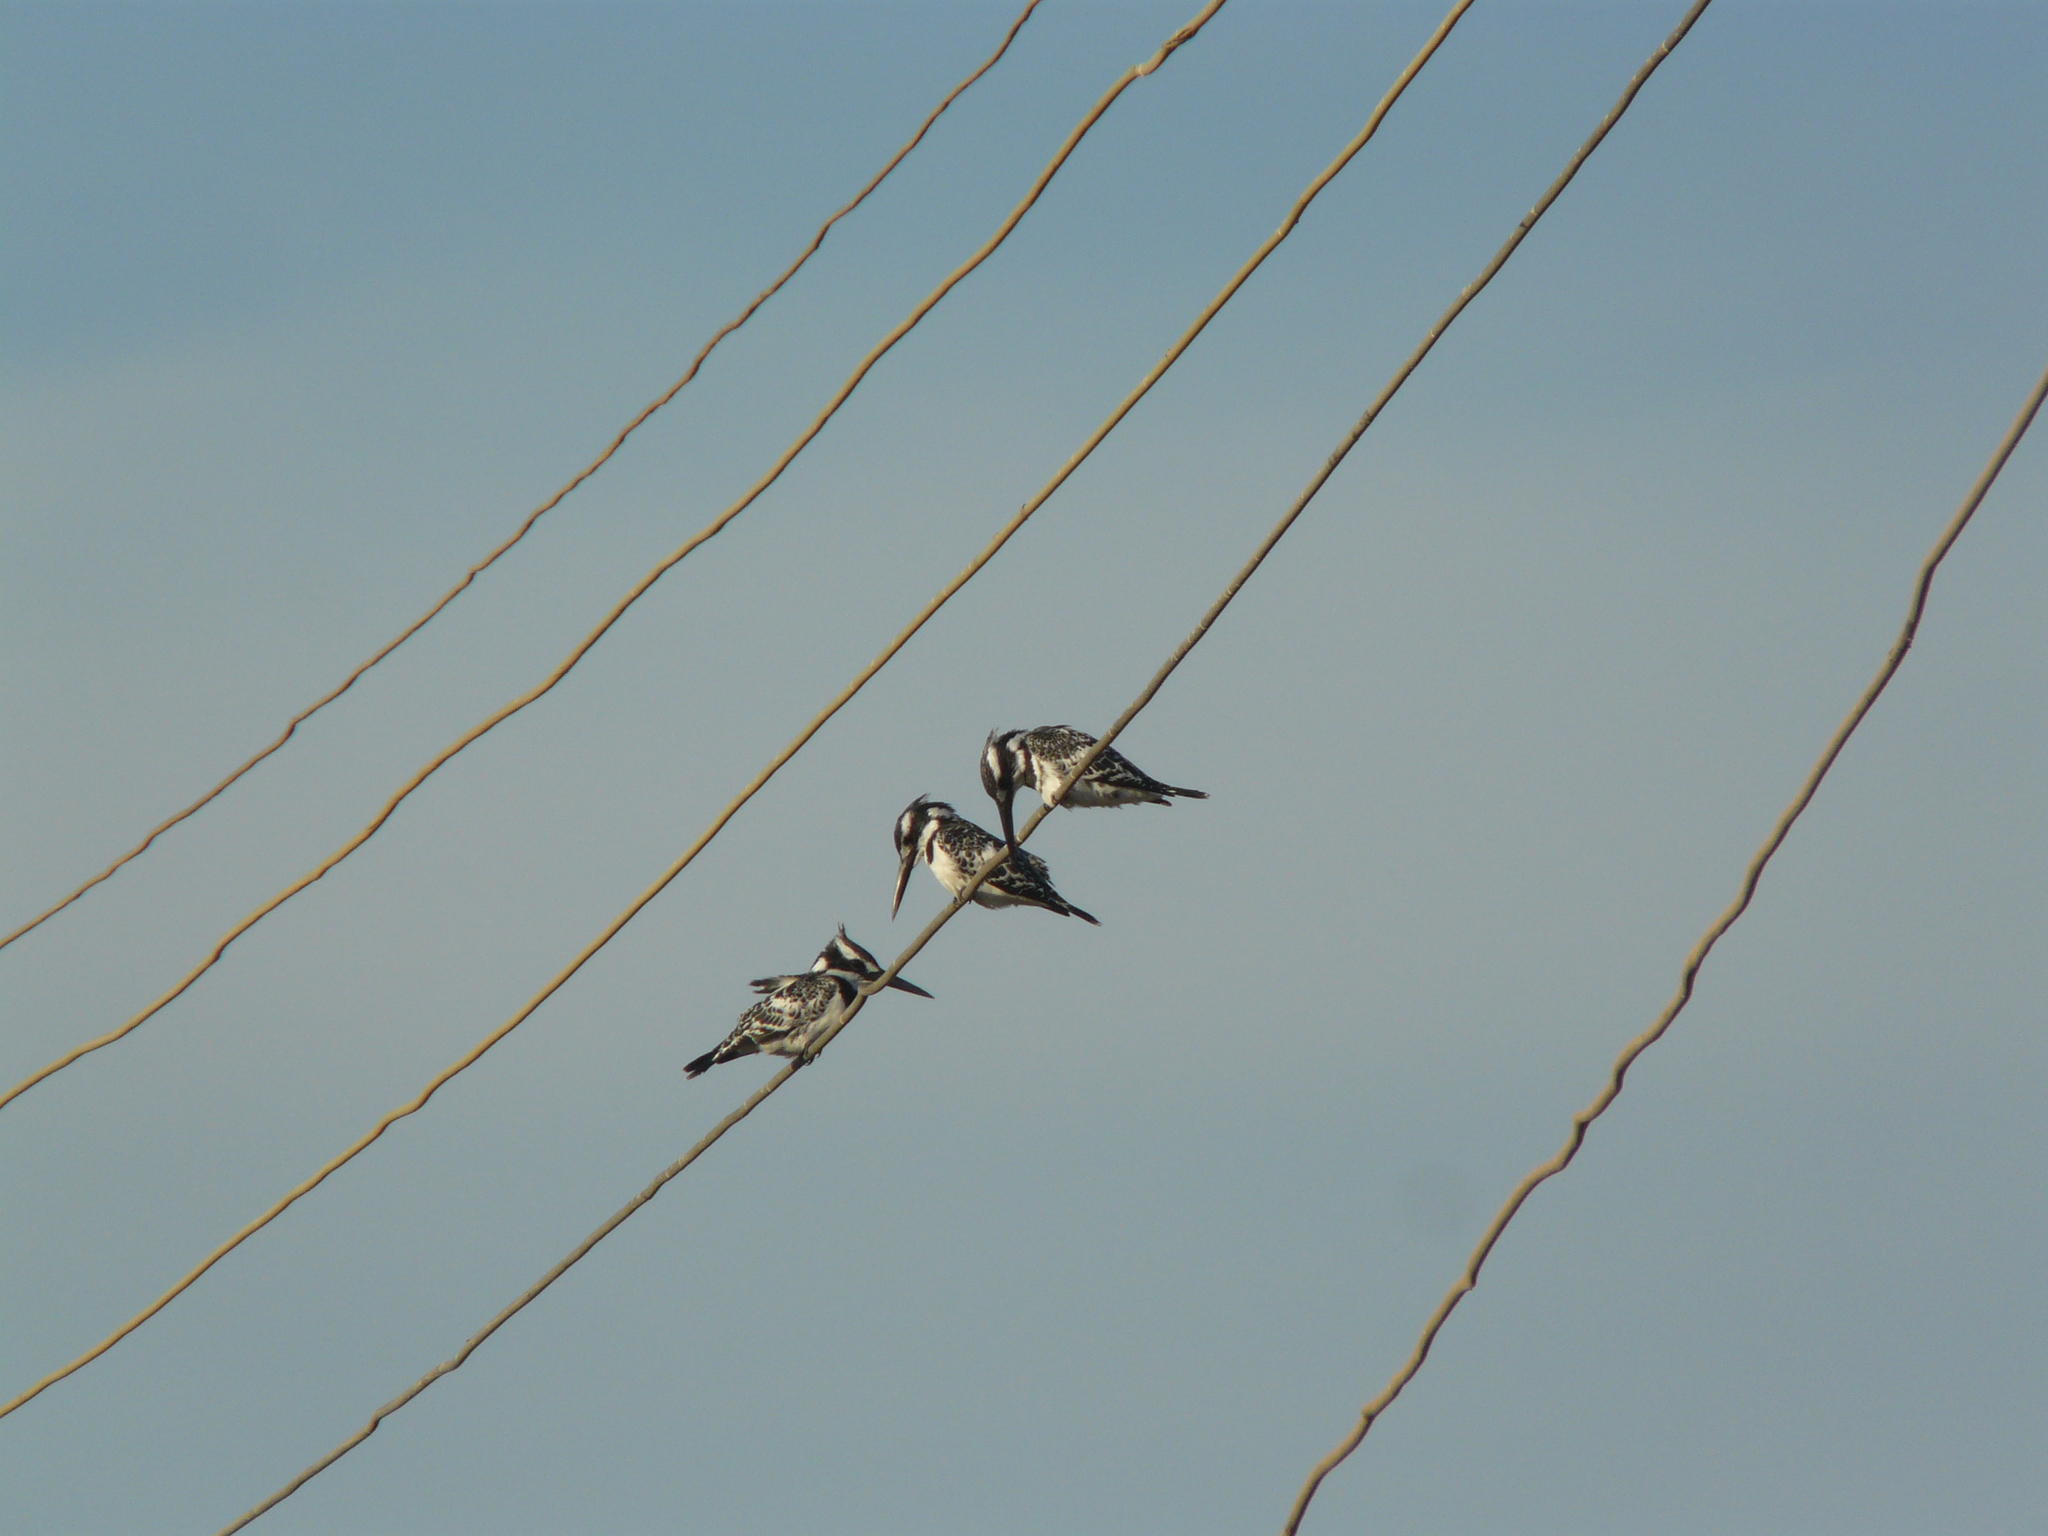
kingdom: Animalia
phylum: Chordata
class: Aves
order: Coraciiformes
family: Alcedinidae
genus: Ceryle
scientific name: Ceryle rudis
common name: Pied kingfisher
